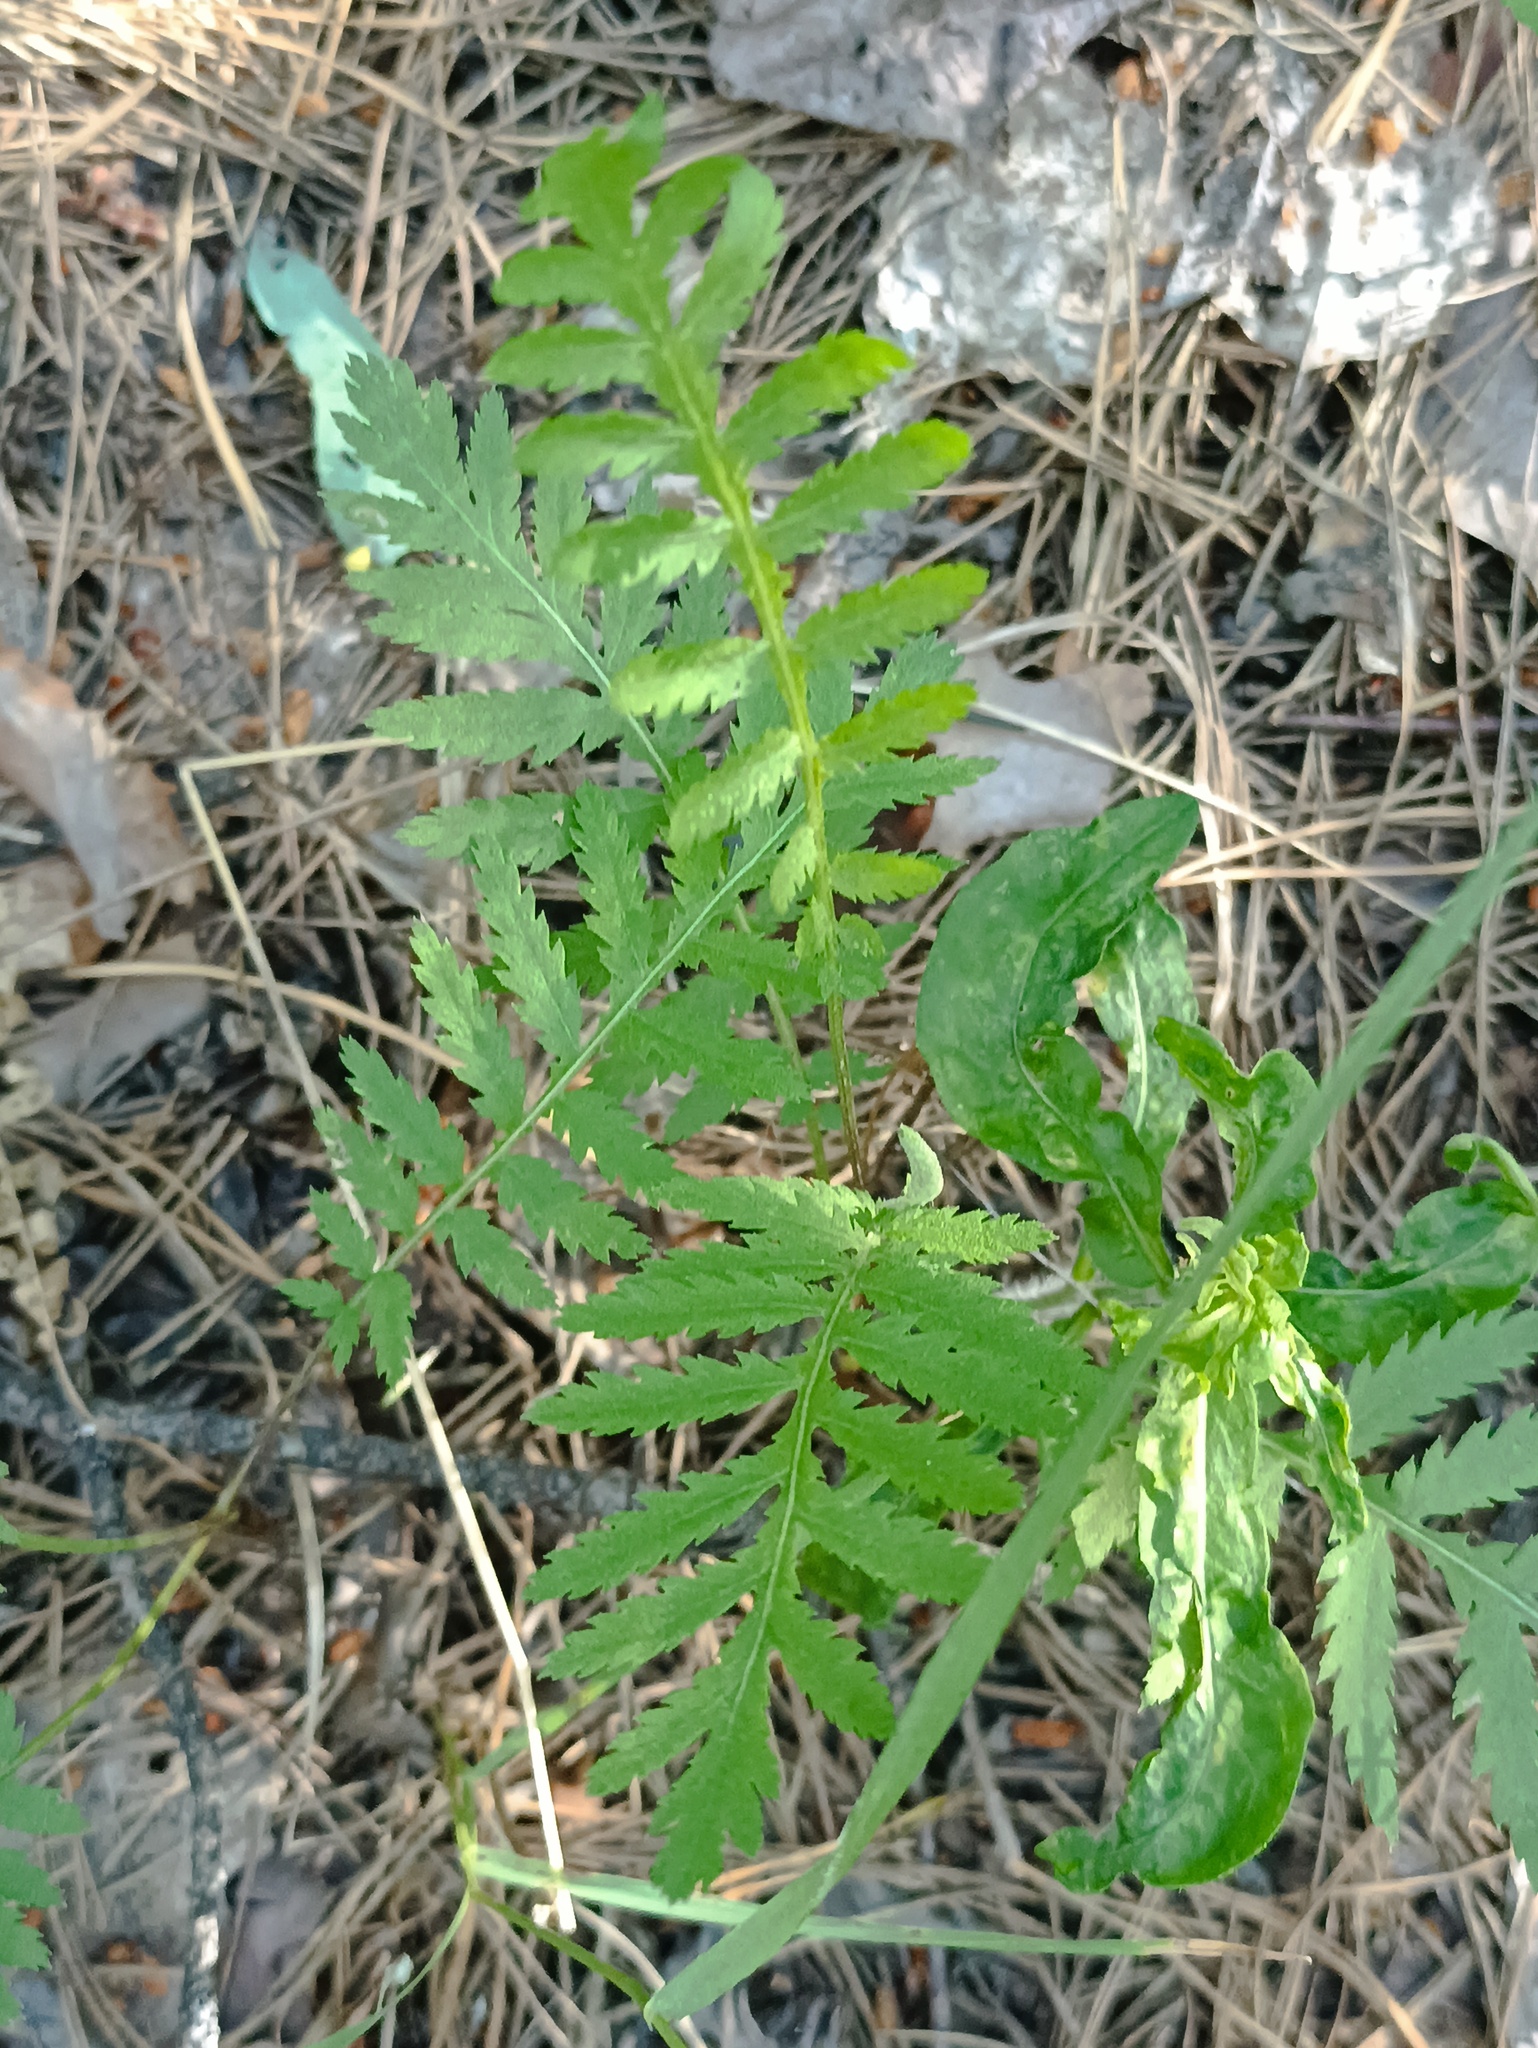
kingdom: Plantae
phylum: Tracheophyta
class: Magnoliopsida
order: Asterales
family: Asteraceae
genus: Tanacetum
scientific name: Tanacetum vulgare
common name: Common tansy
